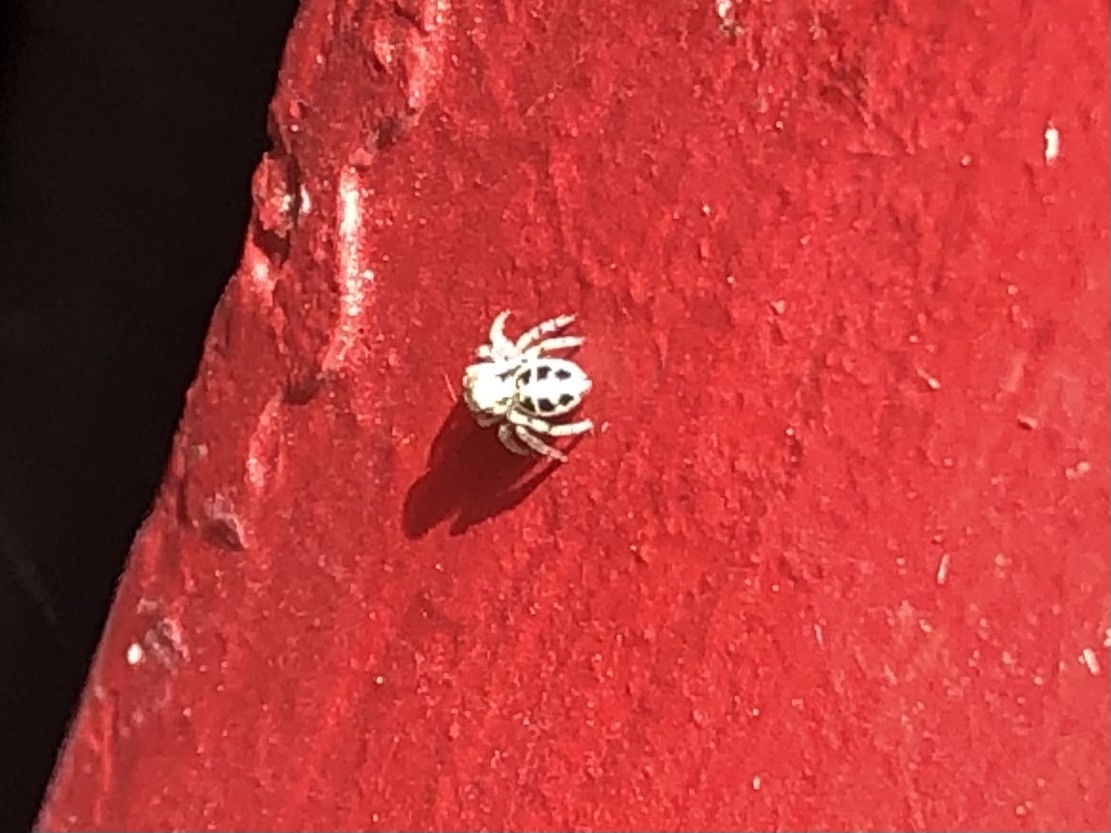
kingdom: Animalia
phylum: Arthropoda
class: Arachnida
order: Araneae
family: Salticidae
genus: Attulus
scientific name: Attulus ammophilus
